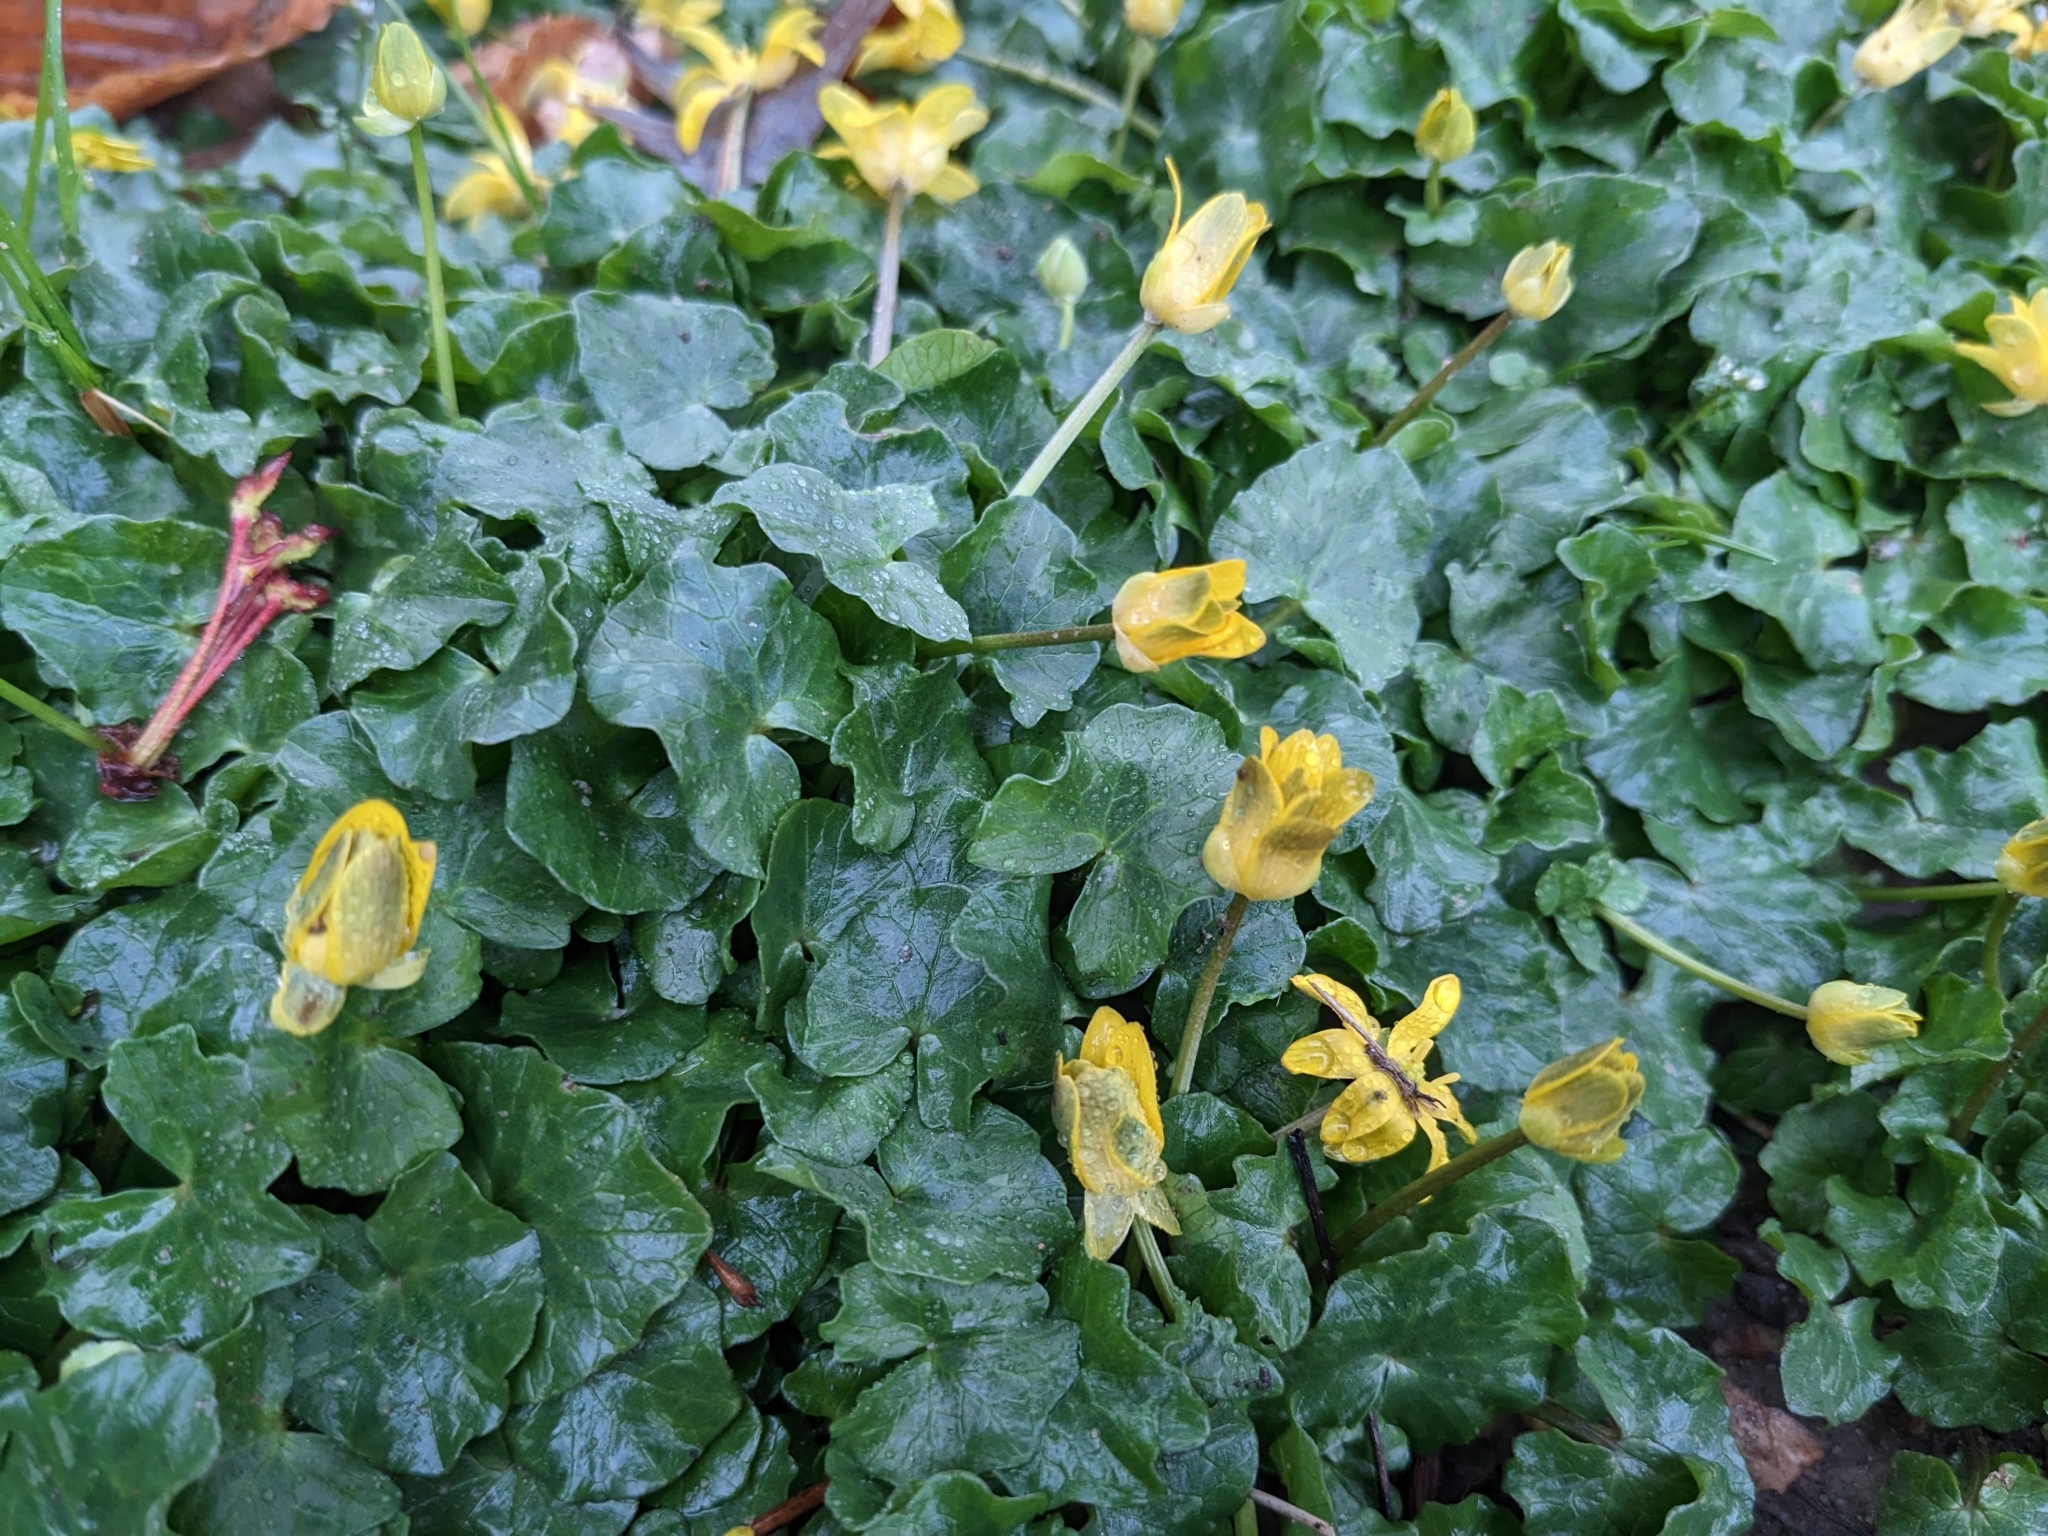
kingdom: Plantae
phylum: Tracheophyta
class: Magnoliopsida
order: Ranunculales
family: Ranunculaceae
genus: Ficaria
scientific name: Ficaria verna
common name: Lesser celandine
